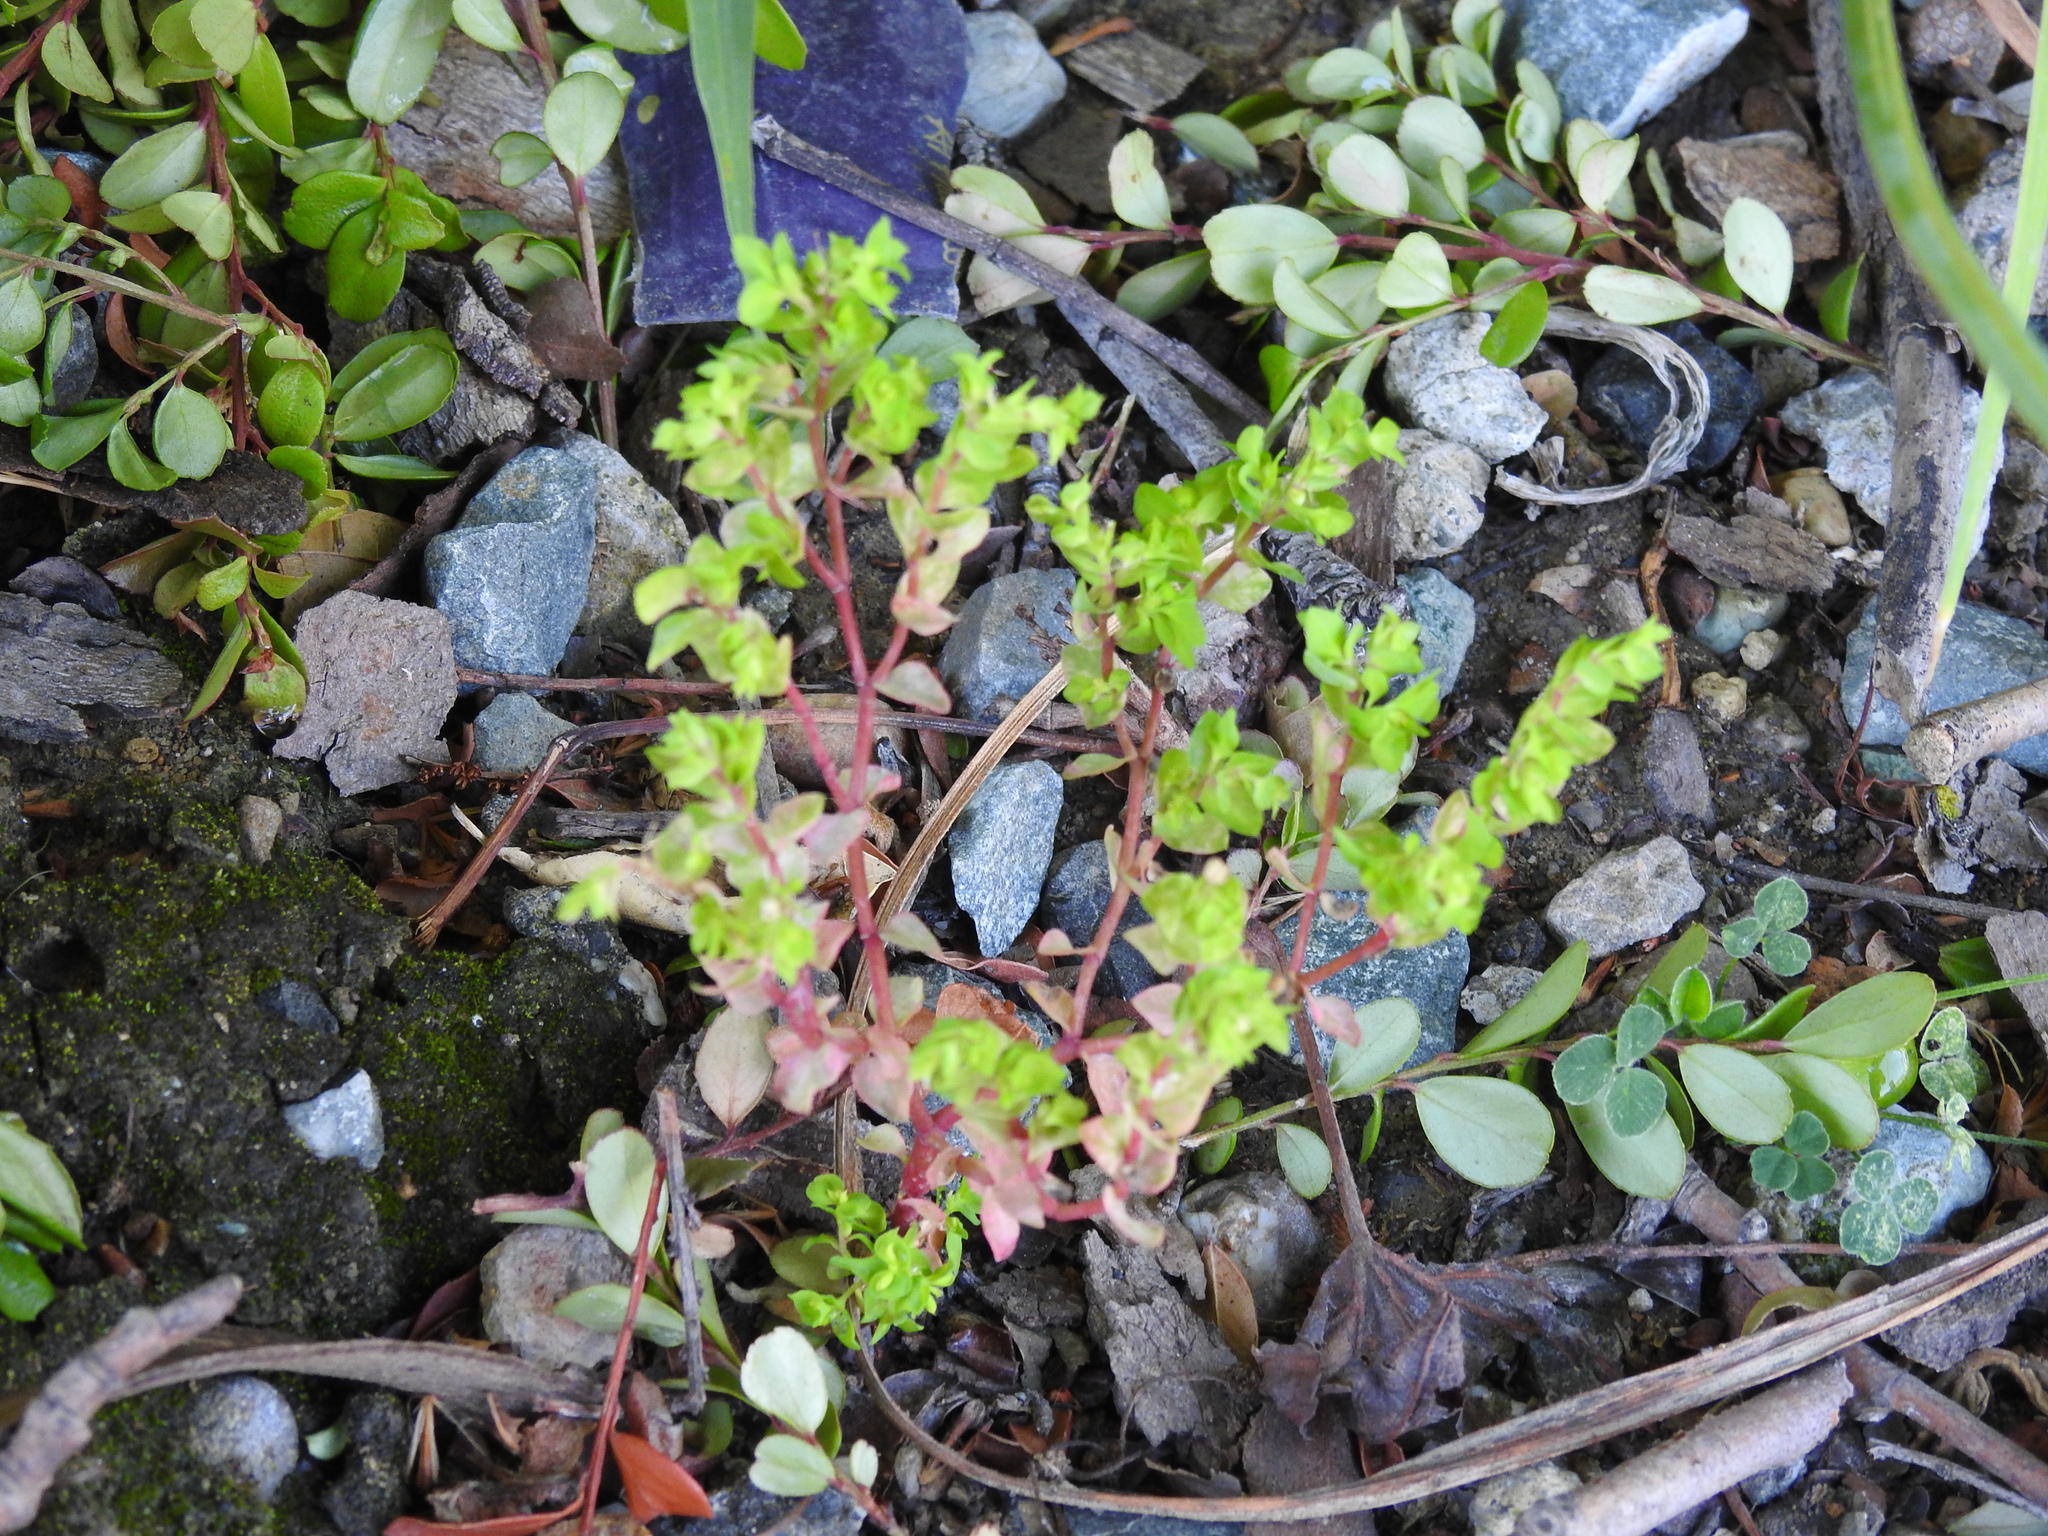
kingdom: Plantae
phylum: Tracheophyta
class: Magnoliopsida
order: Malpighiales
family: Euphorbiaceae
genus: Euphorbia
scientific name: Euphorbia peplus
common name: Petty spurge
